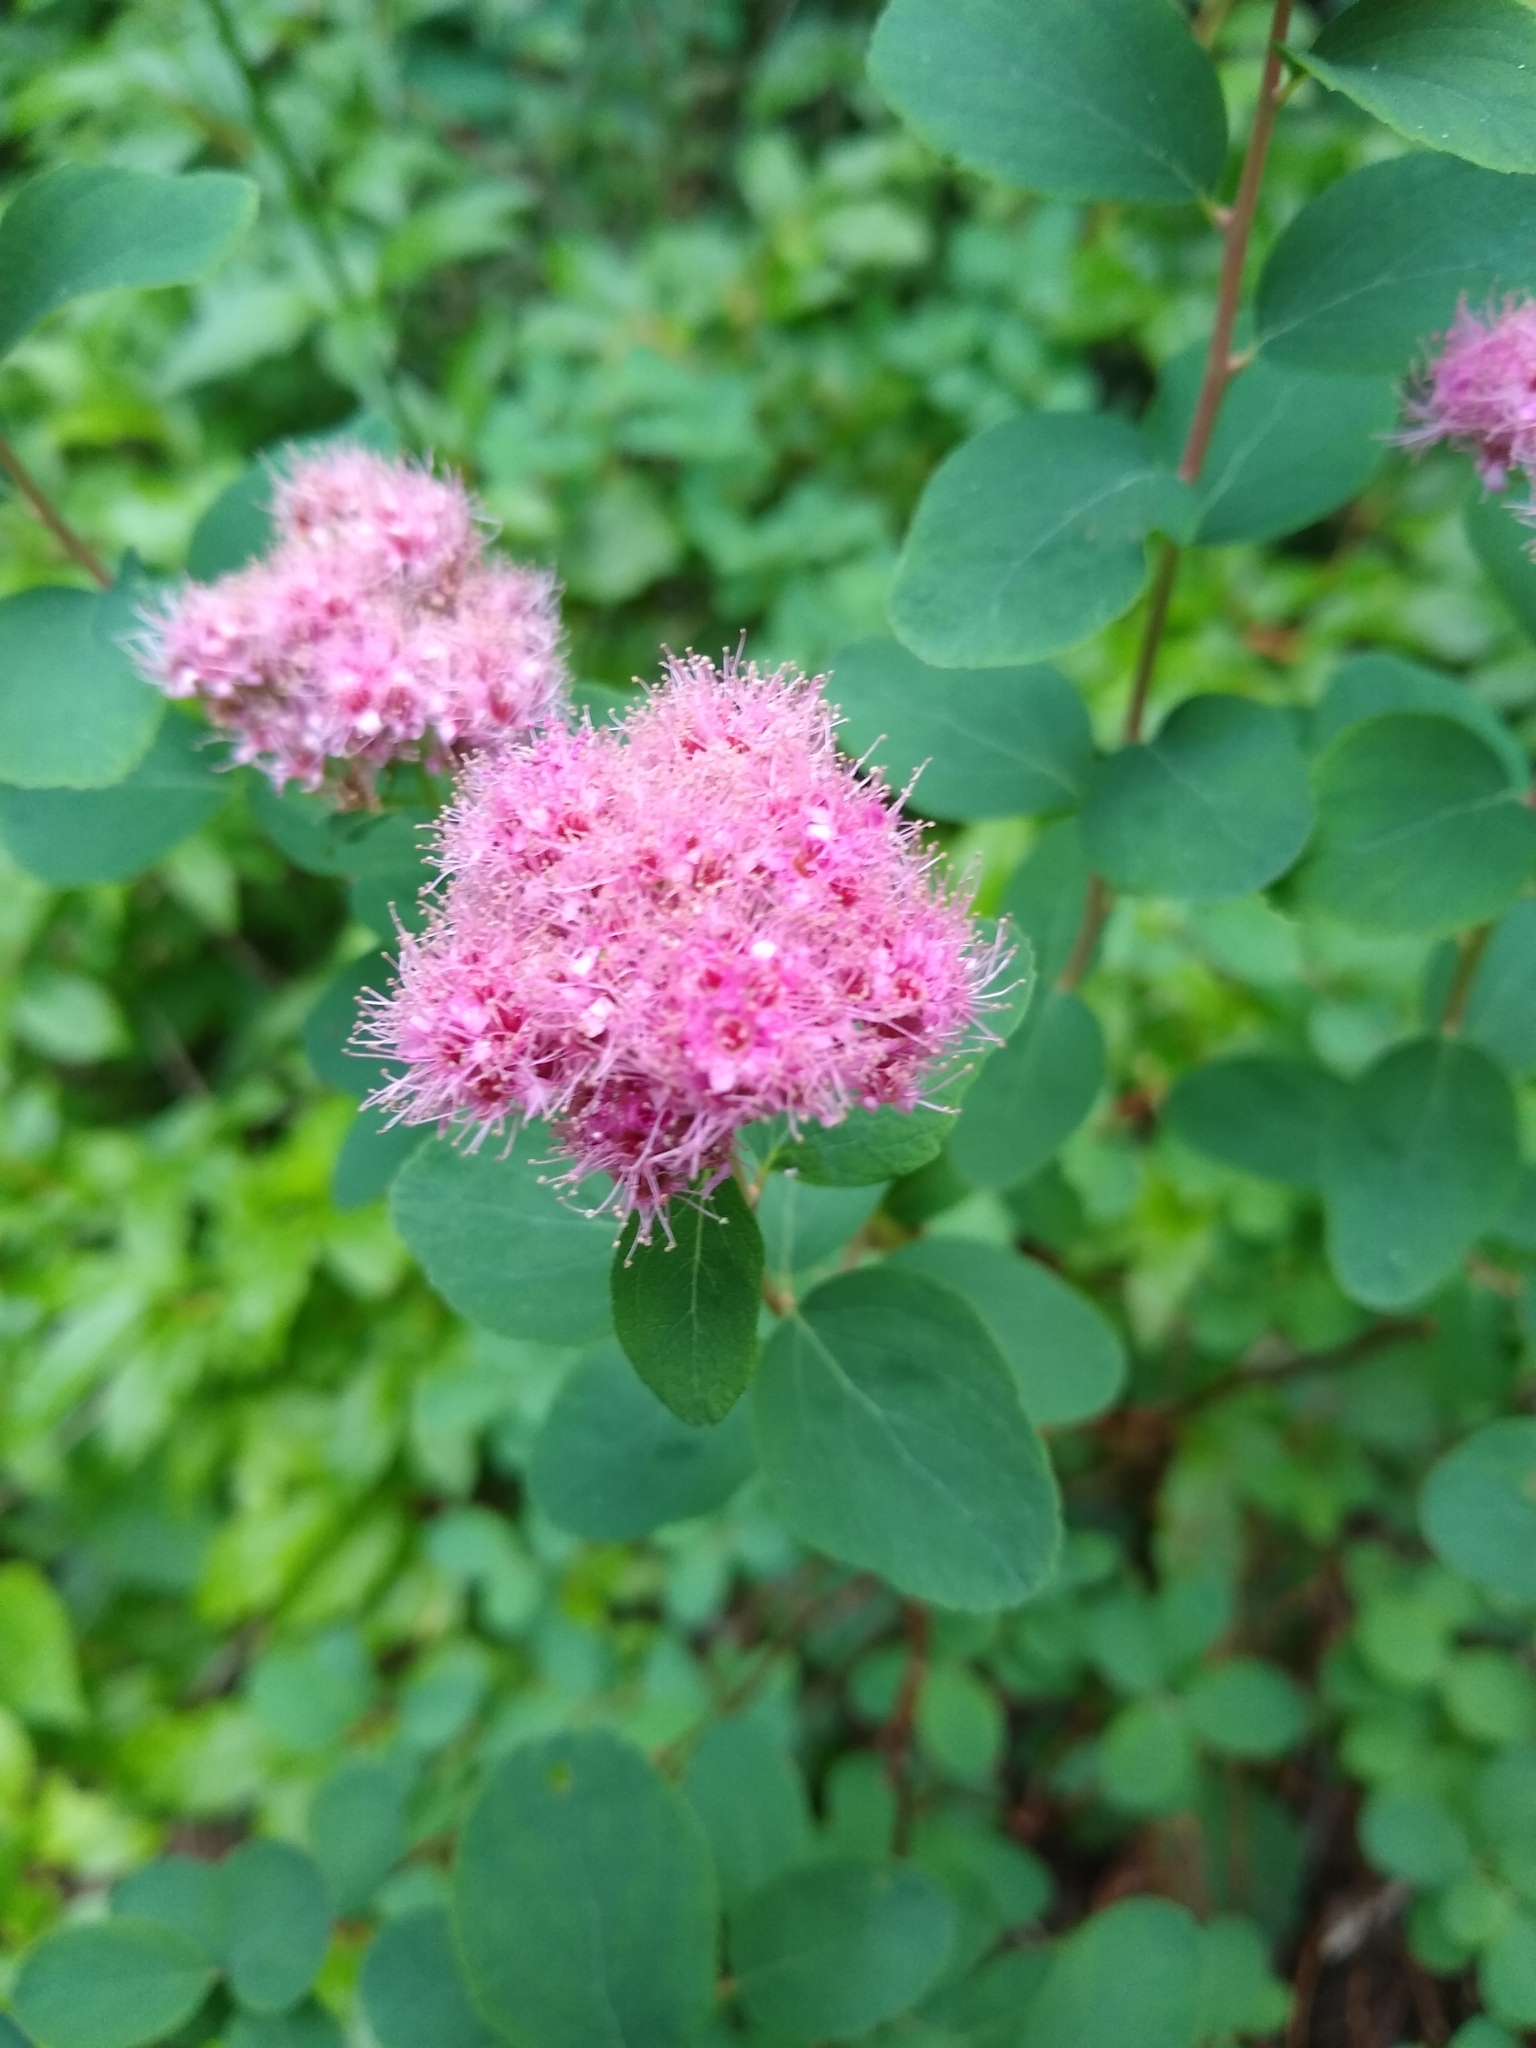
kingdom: Plantae
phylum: Tracheophyta
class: Magnoliopsida
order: Rosales
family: Rosaceae
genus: Spiraea
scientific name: Spiraea splendens
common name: Subalpine meadowsweet
